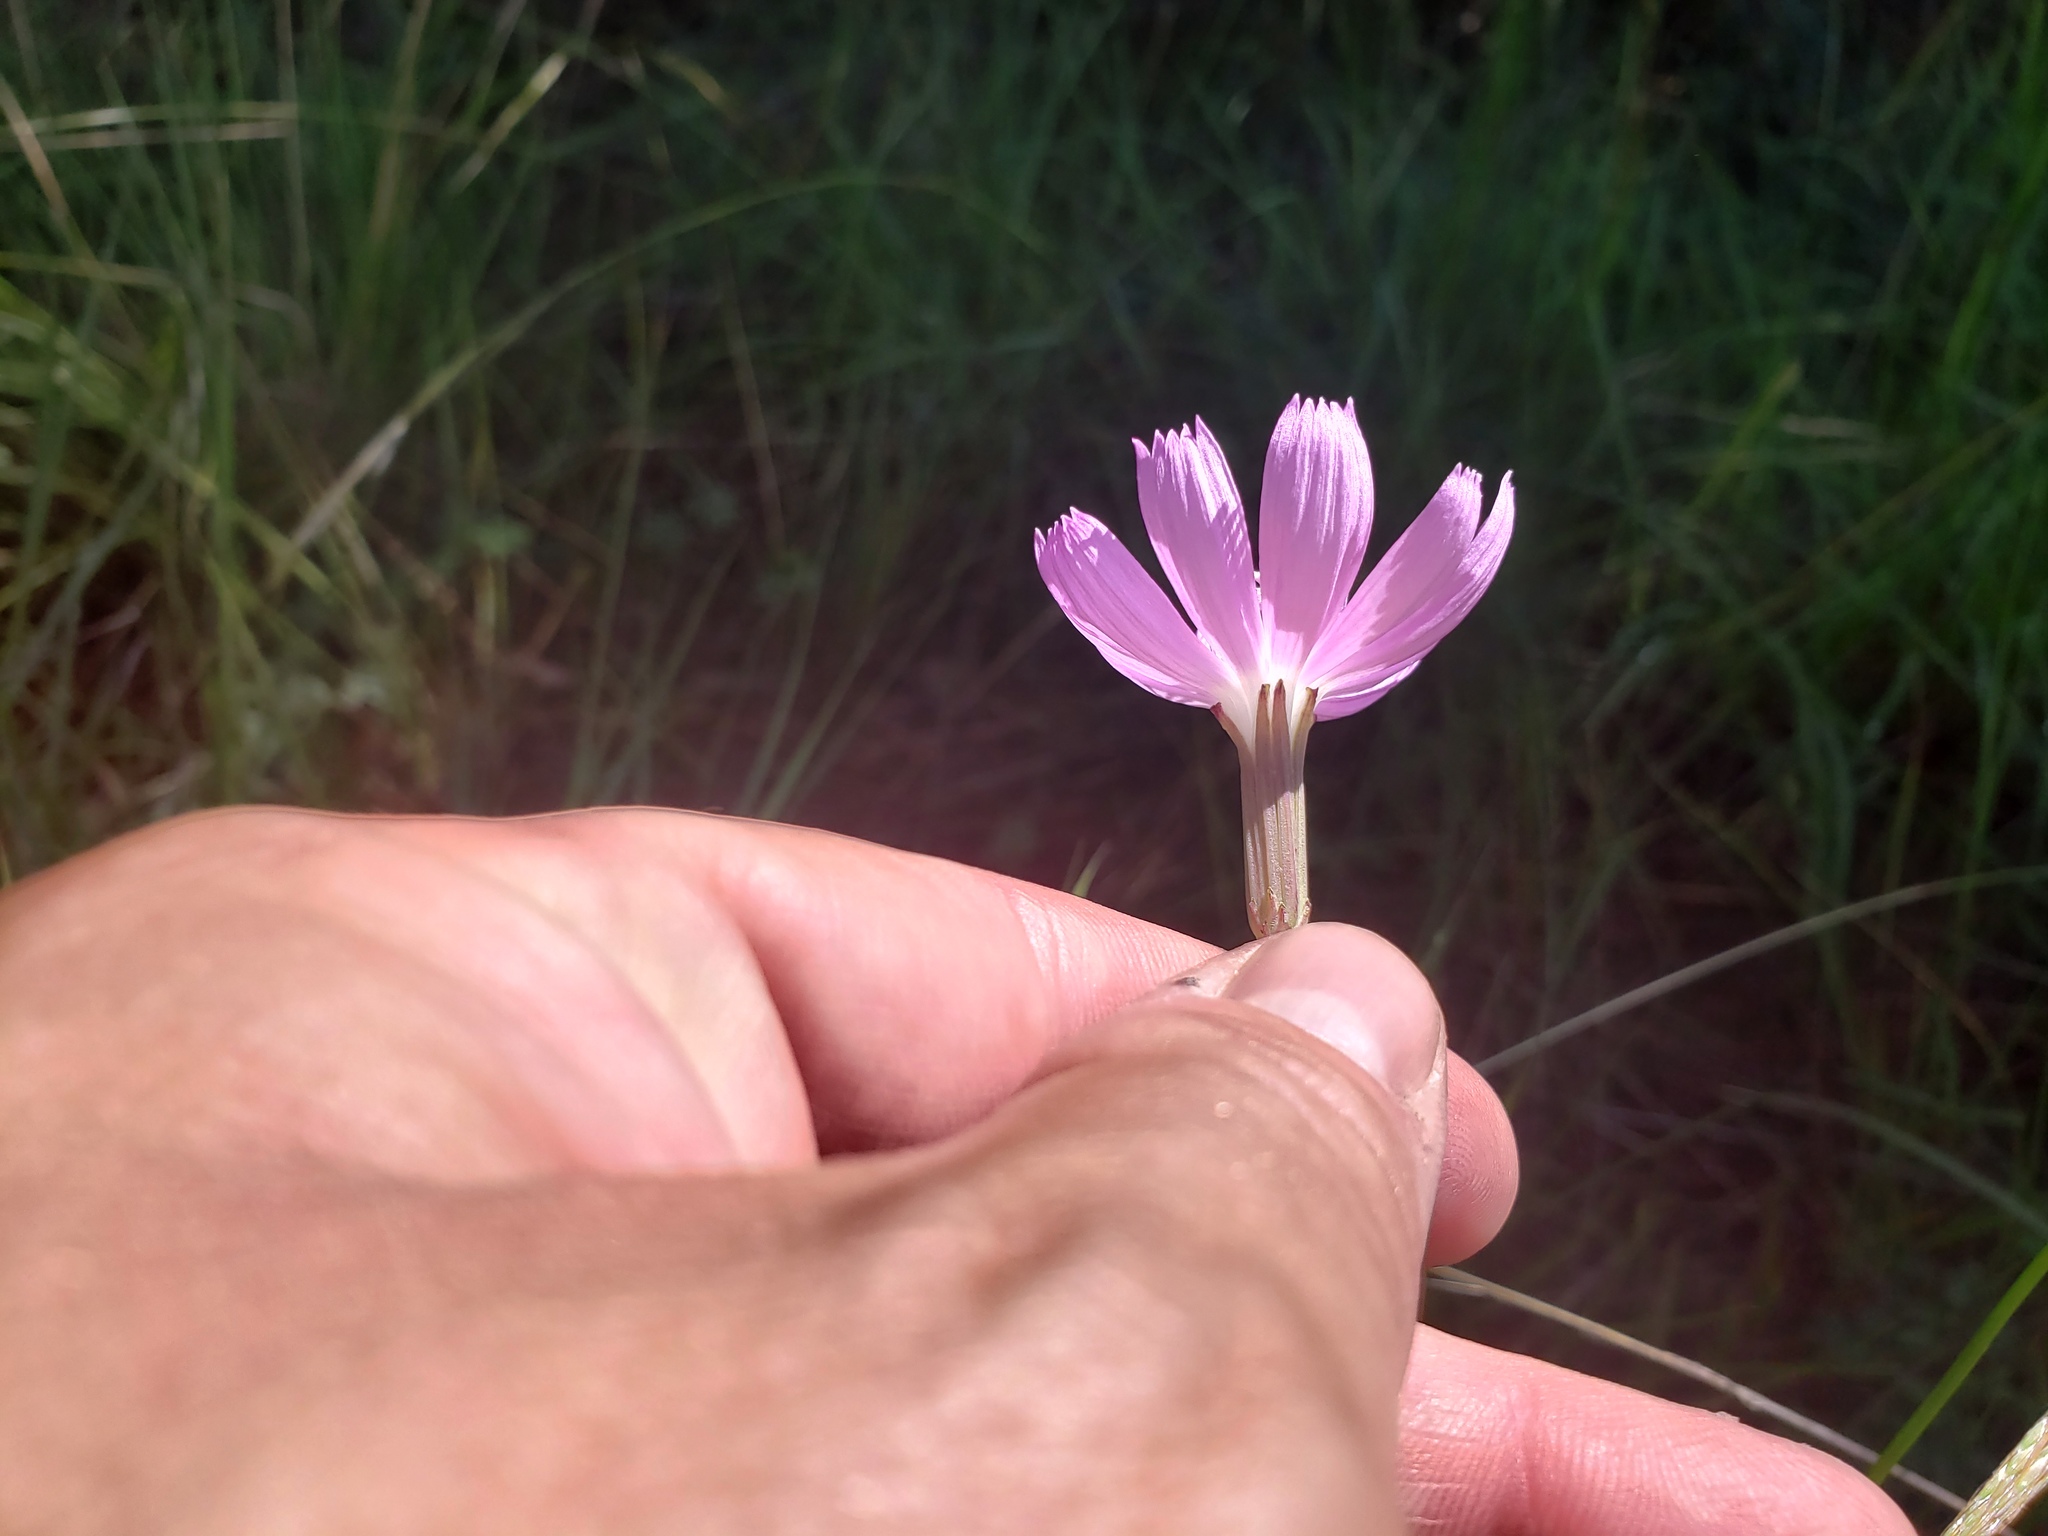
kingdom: Plantae
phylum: Tracheophyta
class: Magnoliopsida
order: Asterales
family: Asteraceae
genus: Lygodesmia
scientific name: Lygodesmia texana
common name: Texas skeleton-plant
